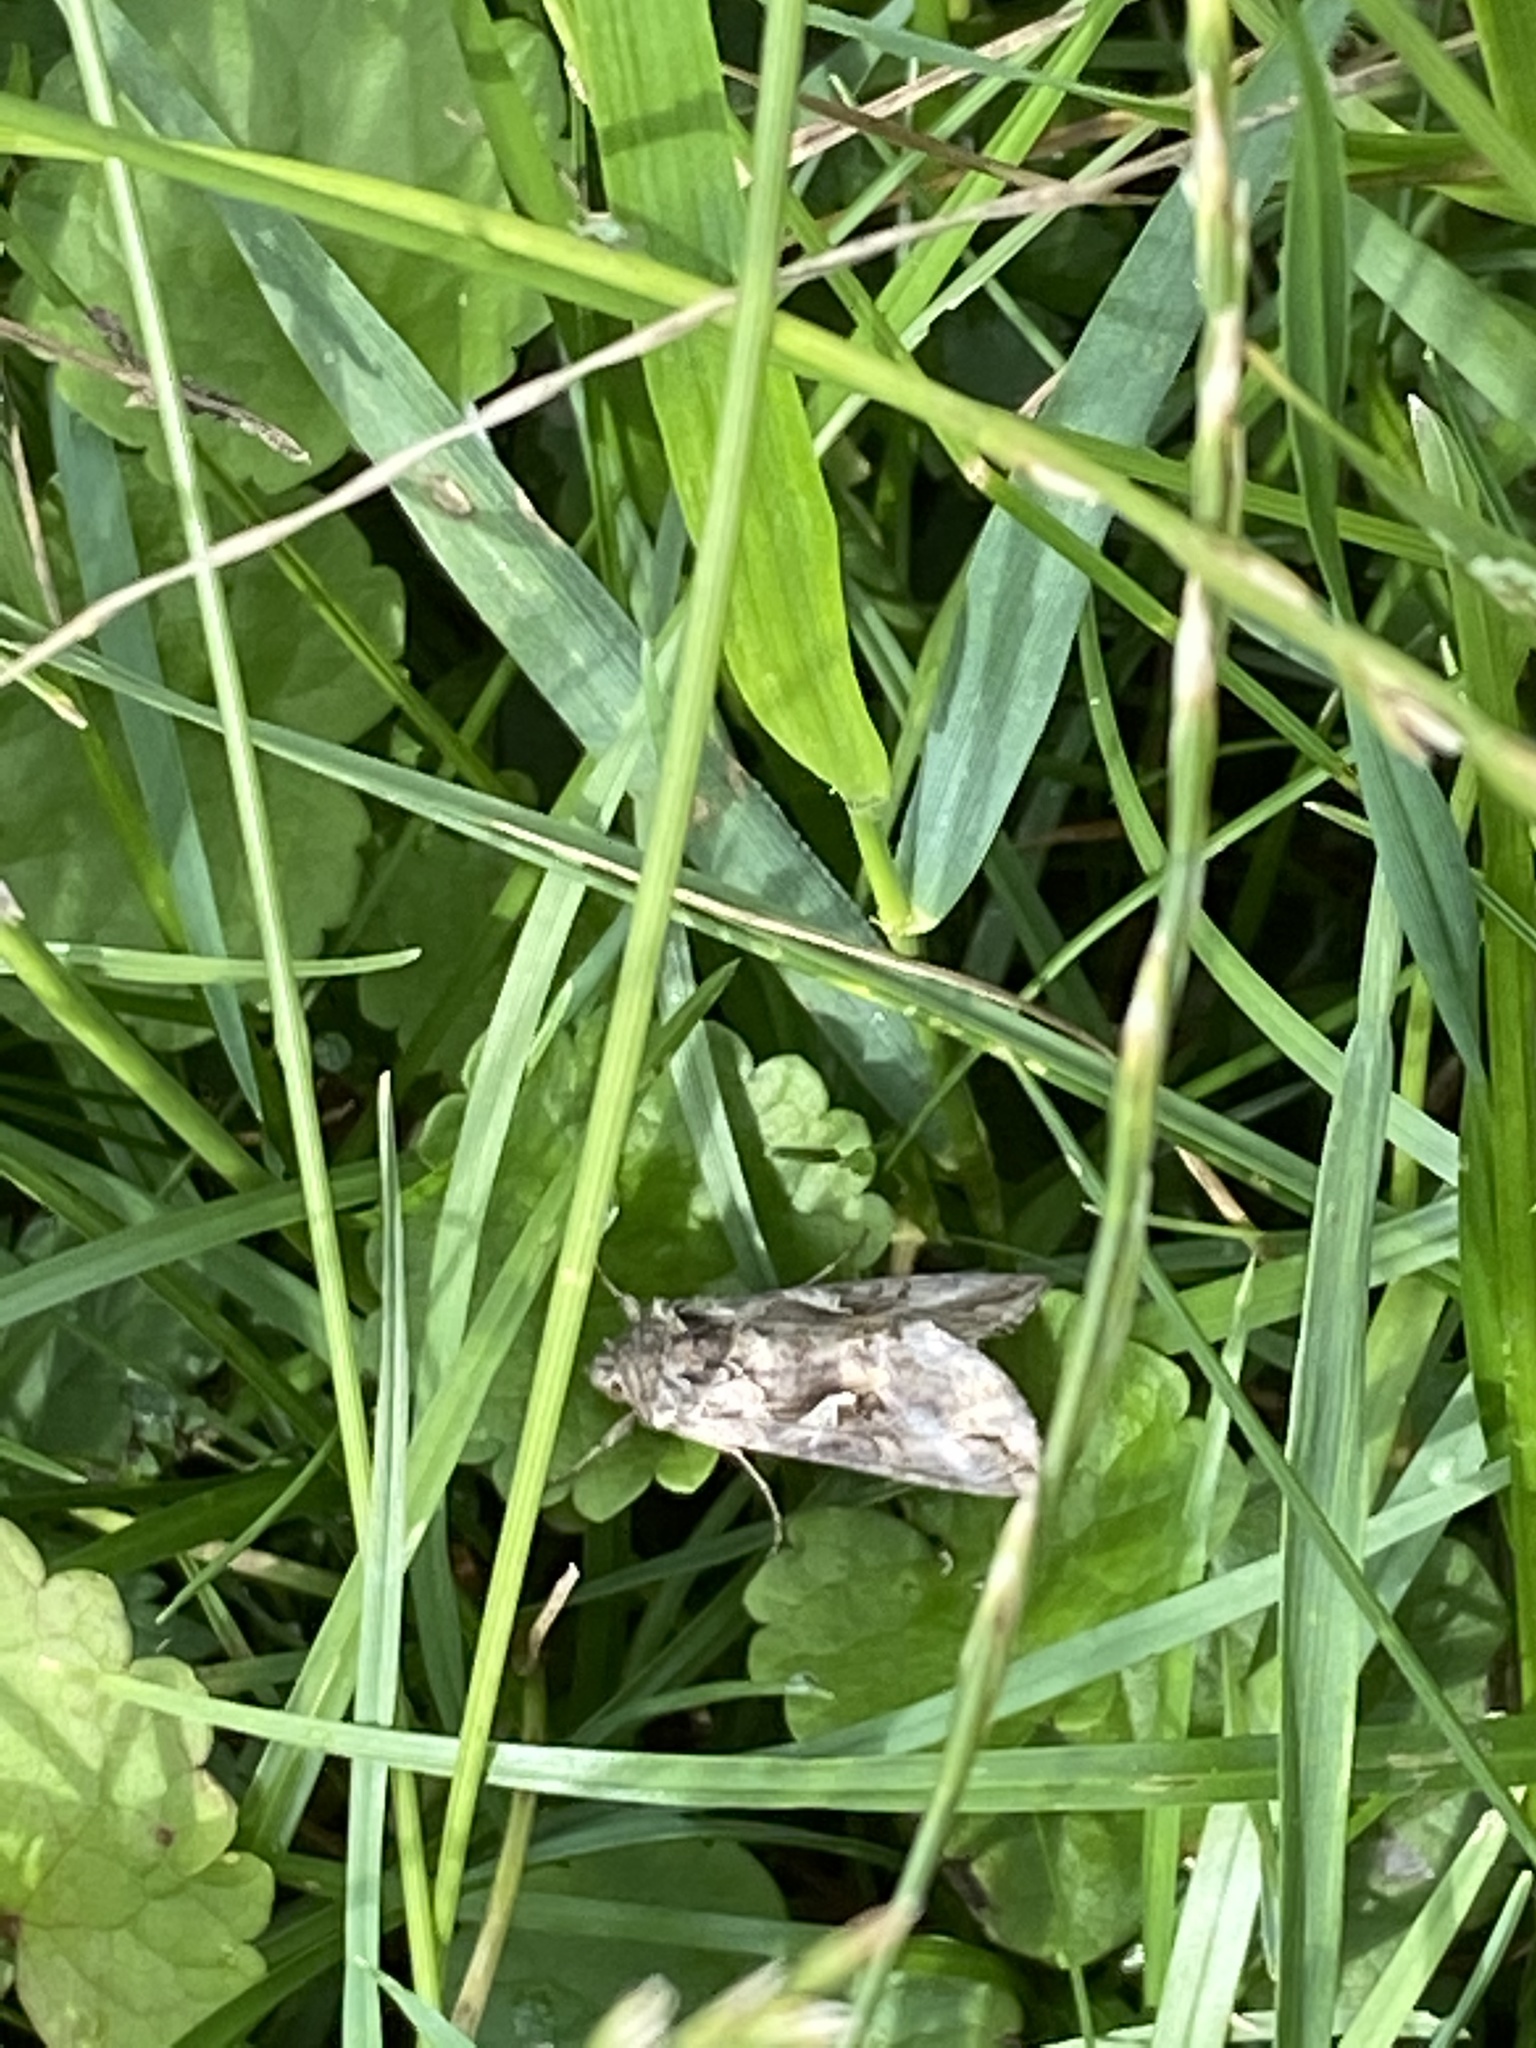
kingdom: Animalia
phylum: Arthropoda
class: Insecta
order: Lepidoptera
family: Noctuidae
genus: Autographa
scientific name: Autographa gamma
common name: Silver y
